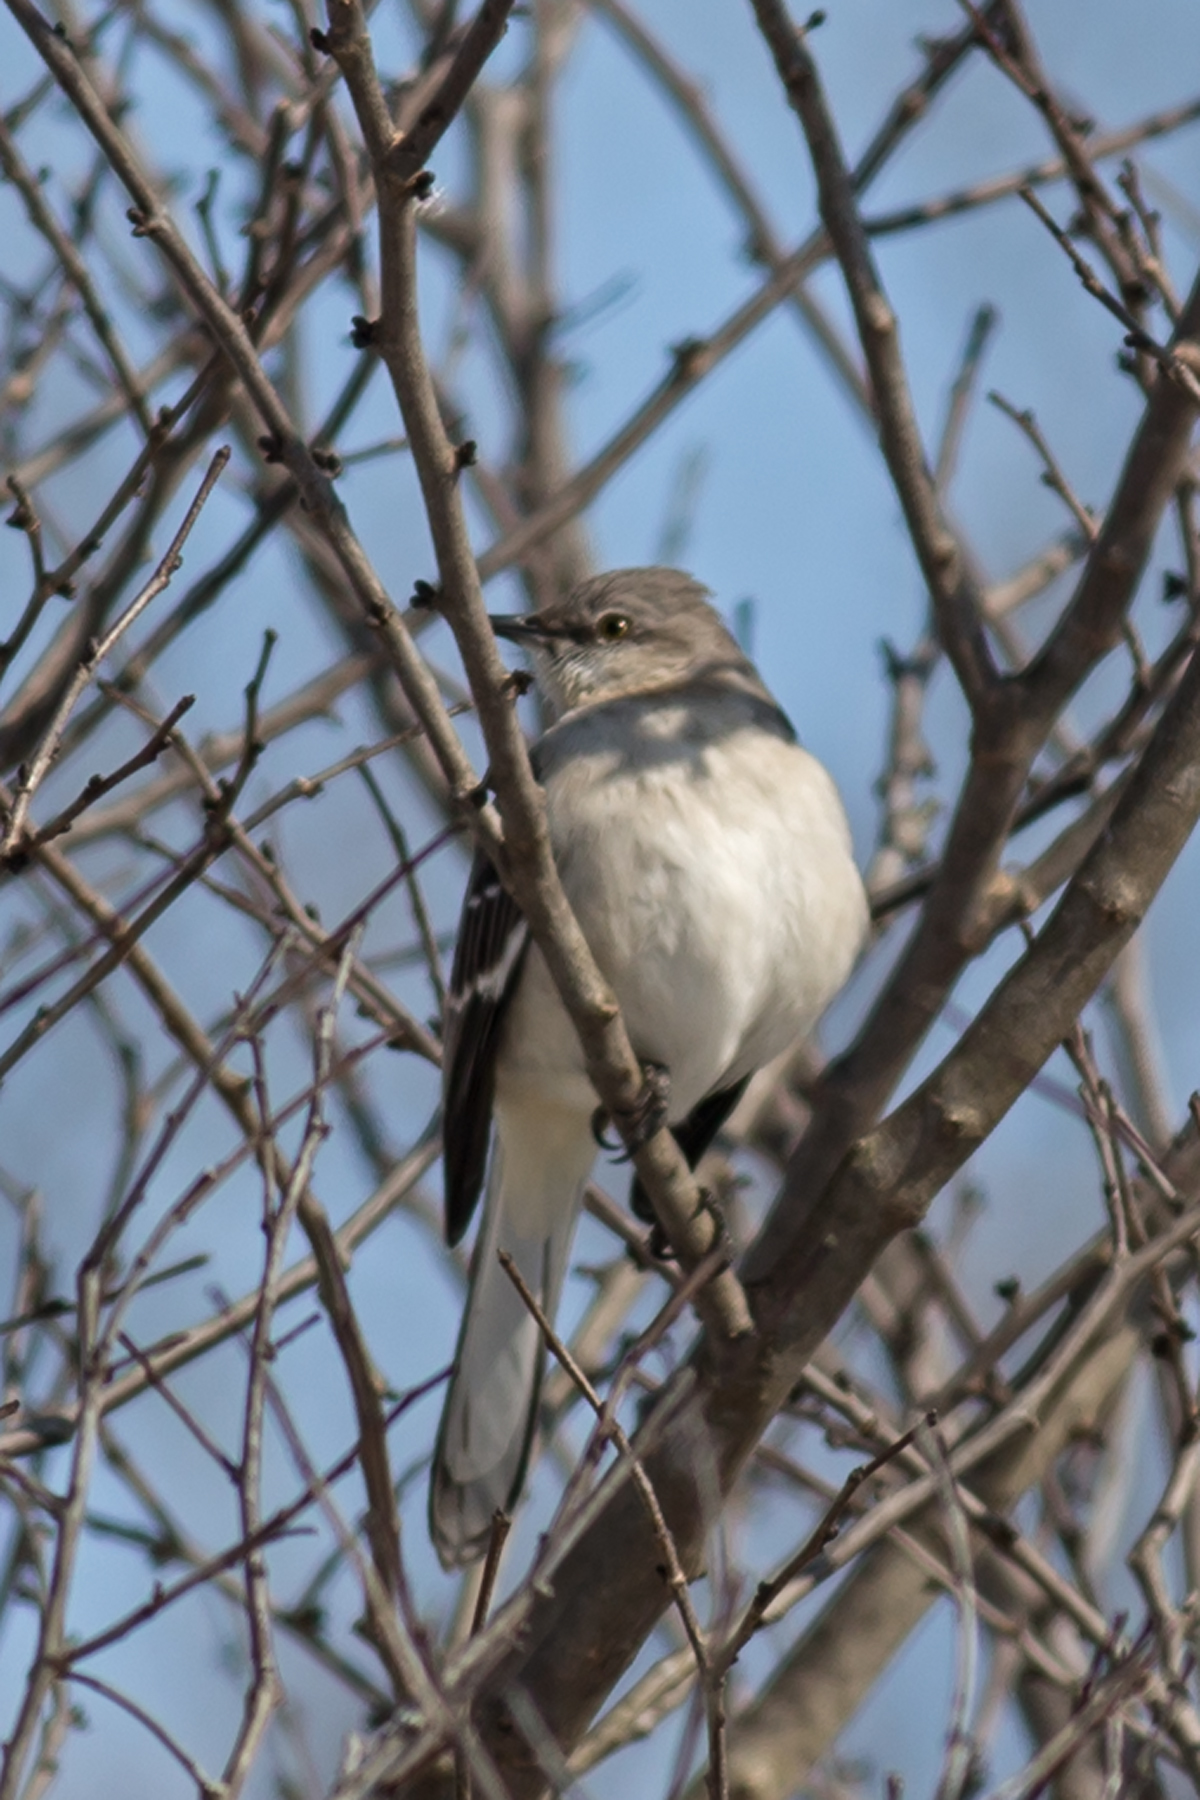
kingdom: Animalia
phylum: Chordata
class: Aves
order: Passeriformes
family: Mimidae
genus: Mimus
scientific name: Mimus polyglottos
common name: Northern mockingbird
